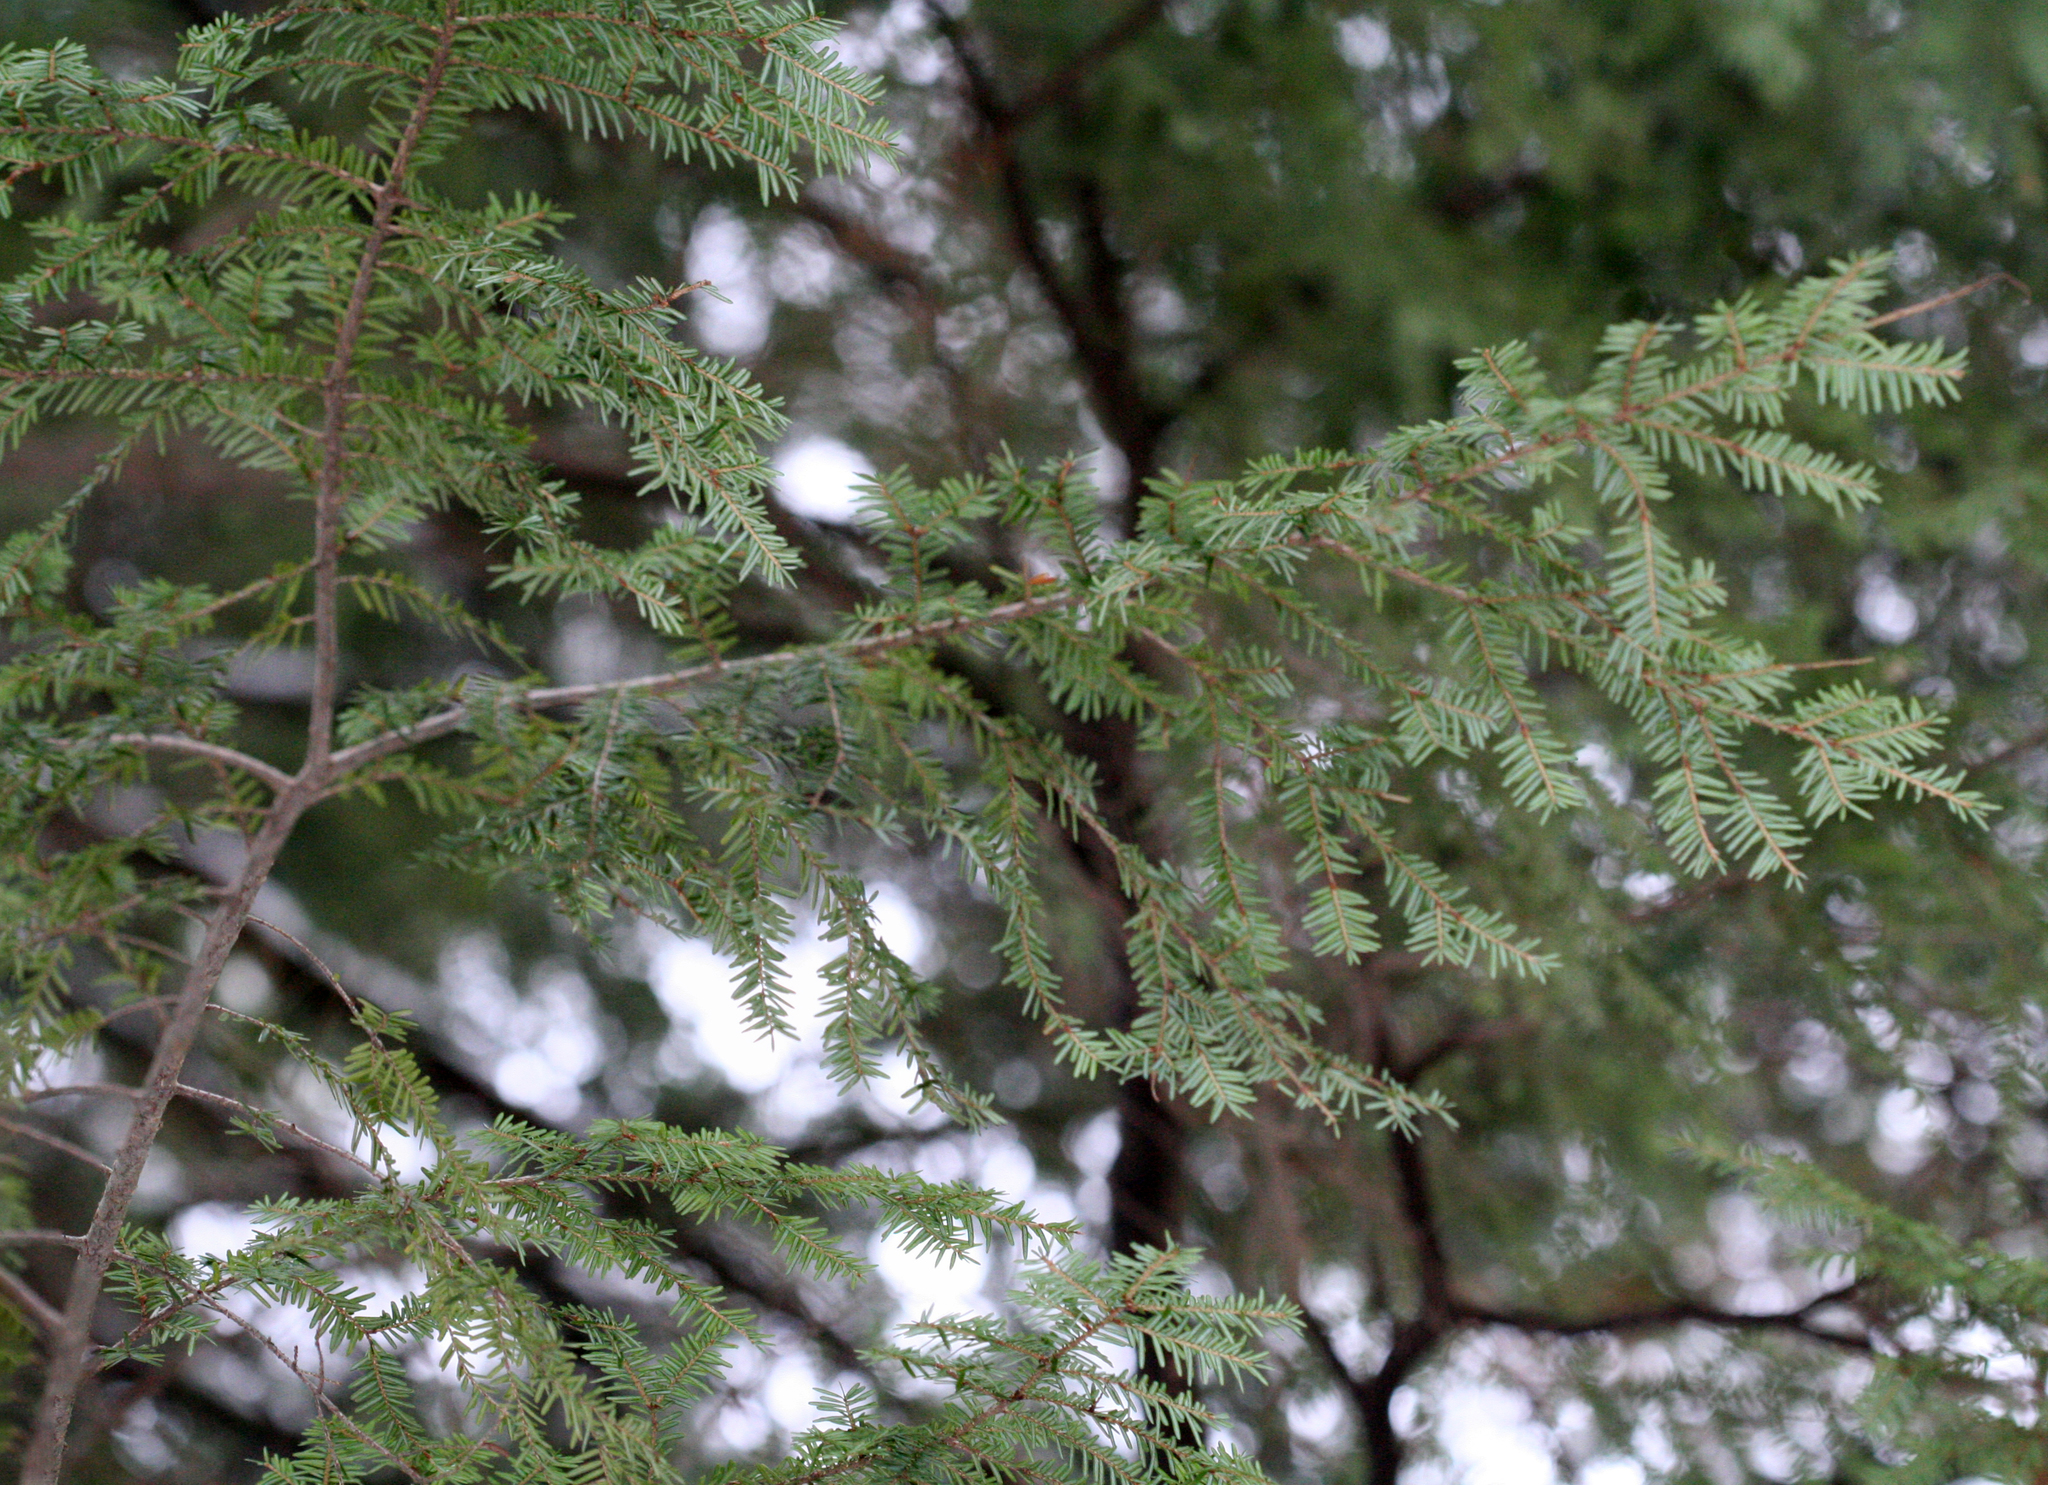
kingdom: Plantae
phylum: Tracheophyta
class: Pinopsida
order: Pinales
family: Pinaceae
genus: Tsuga
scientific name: Tsuga canadensis
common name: Eastern hemlock
